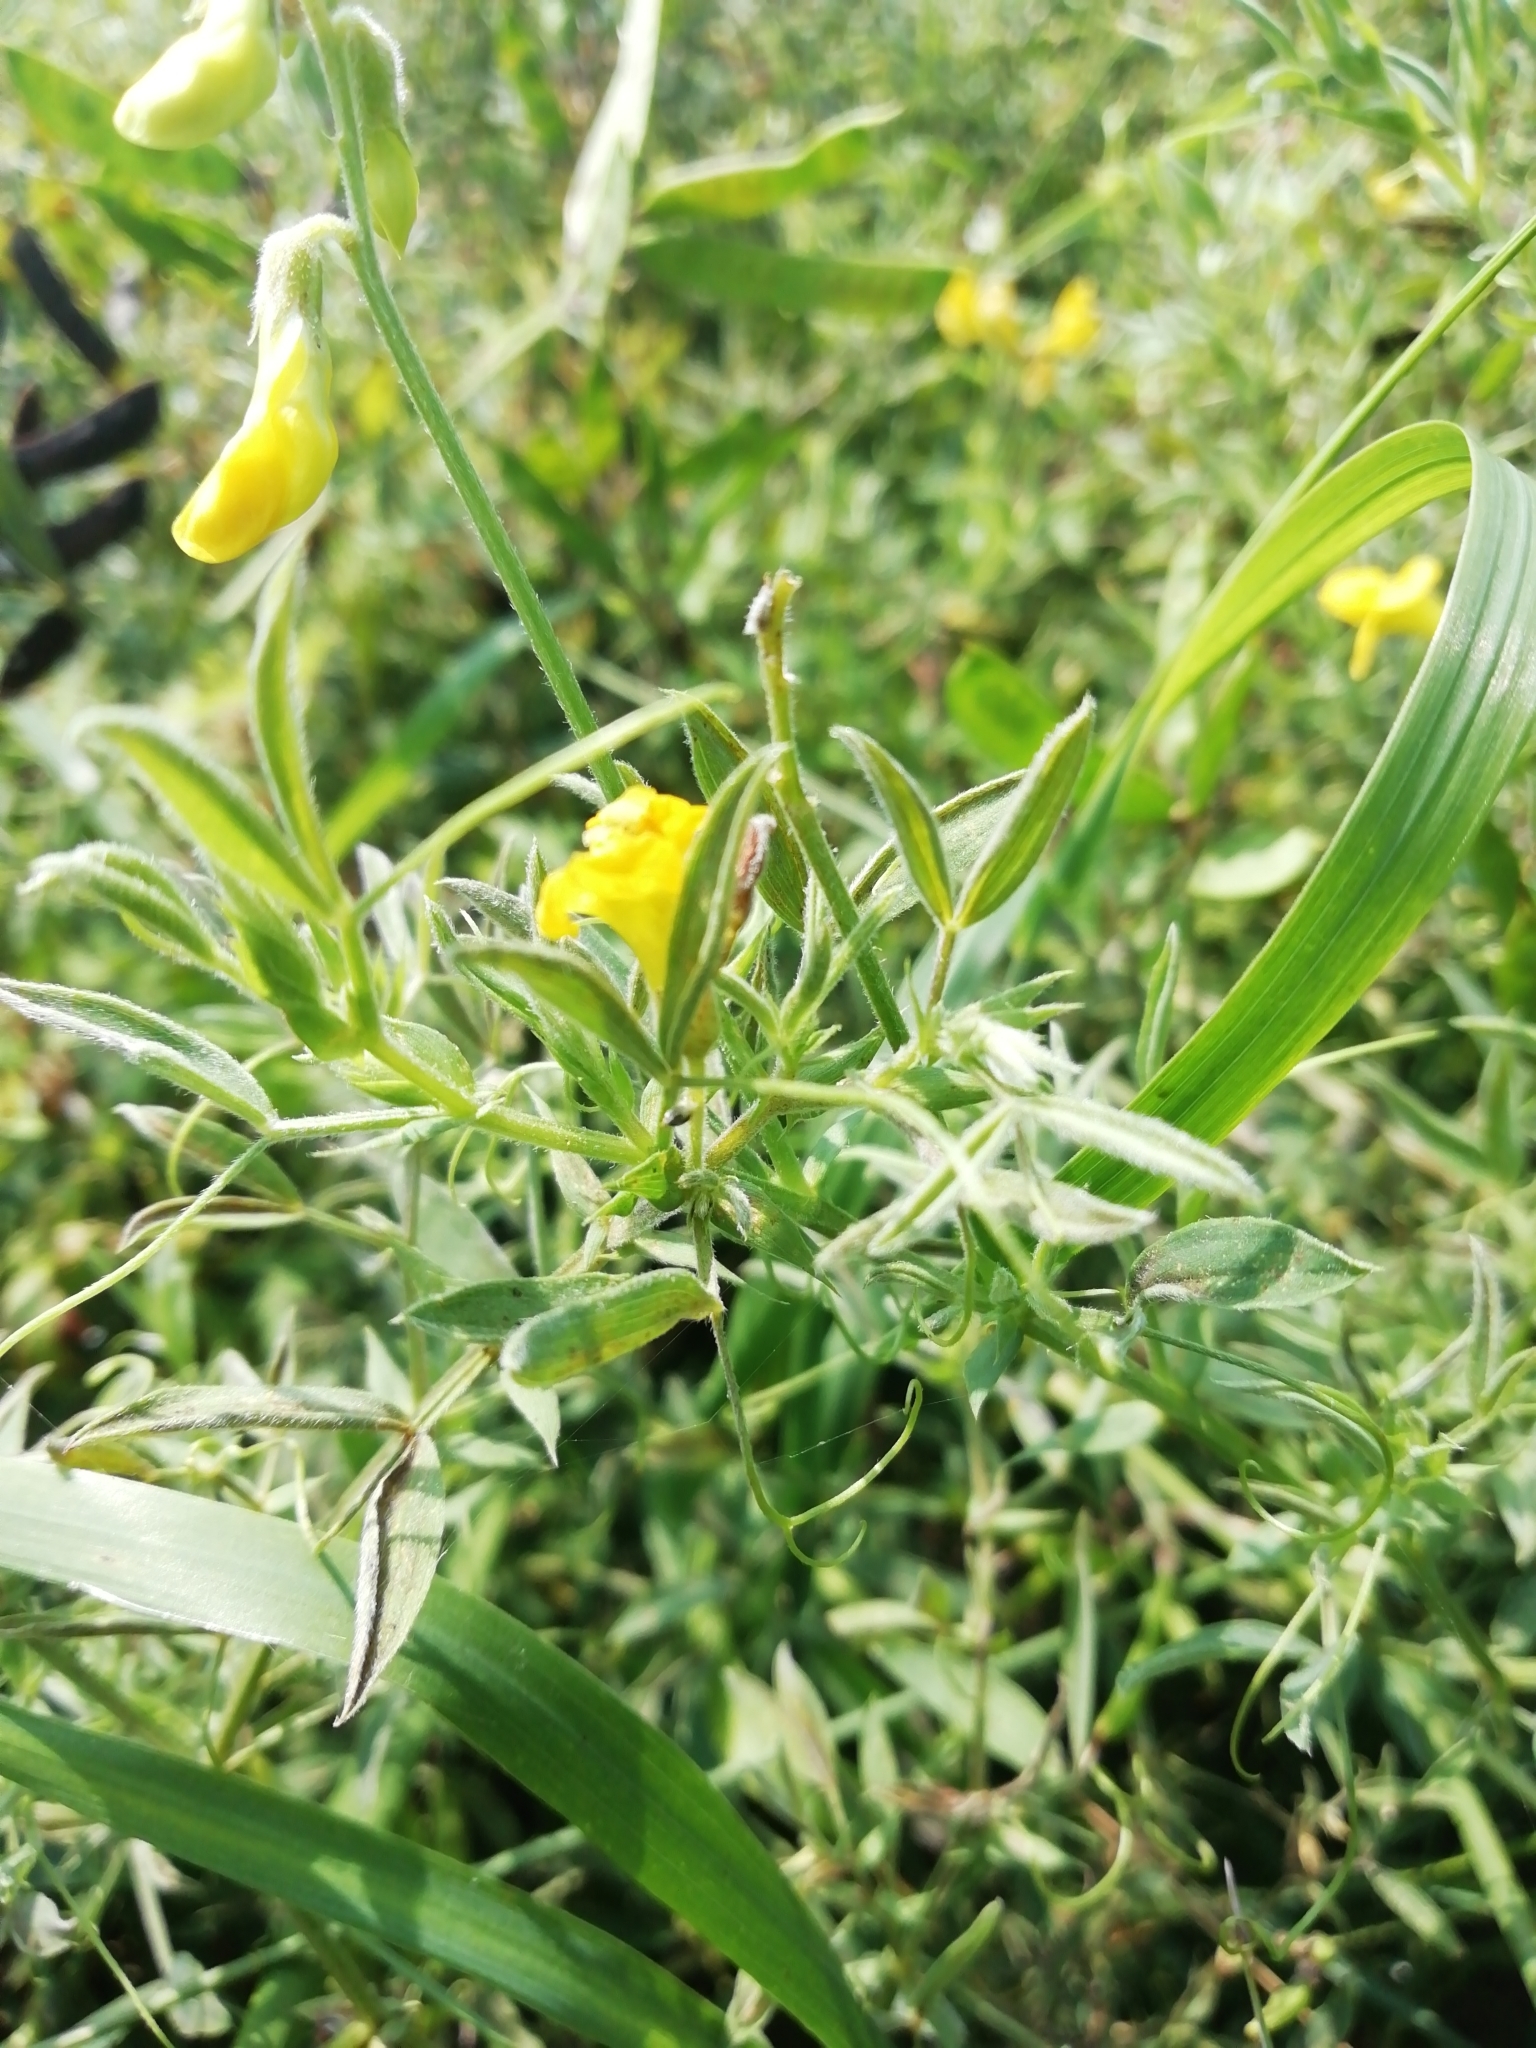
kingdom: Plantae
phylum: Tracheophyta
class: Magnoliopsida
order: Fabales
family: Fabaceae
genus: Lathyrus
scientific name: Lathyrus pratensis
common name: Meadow vetchling
